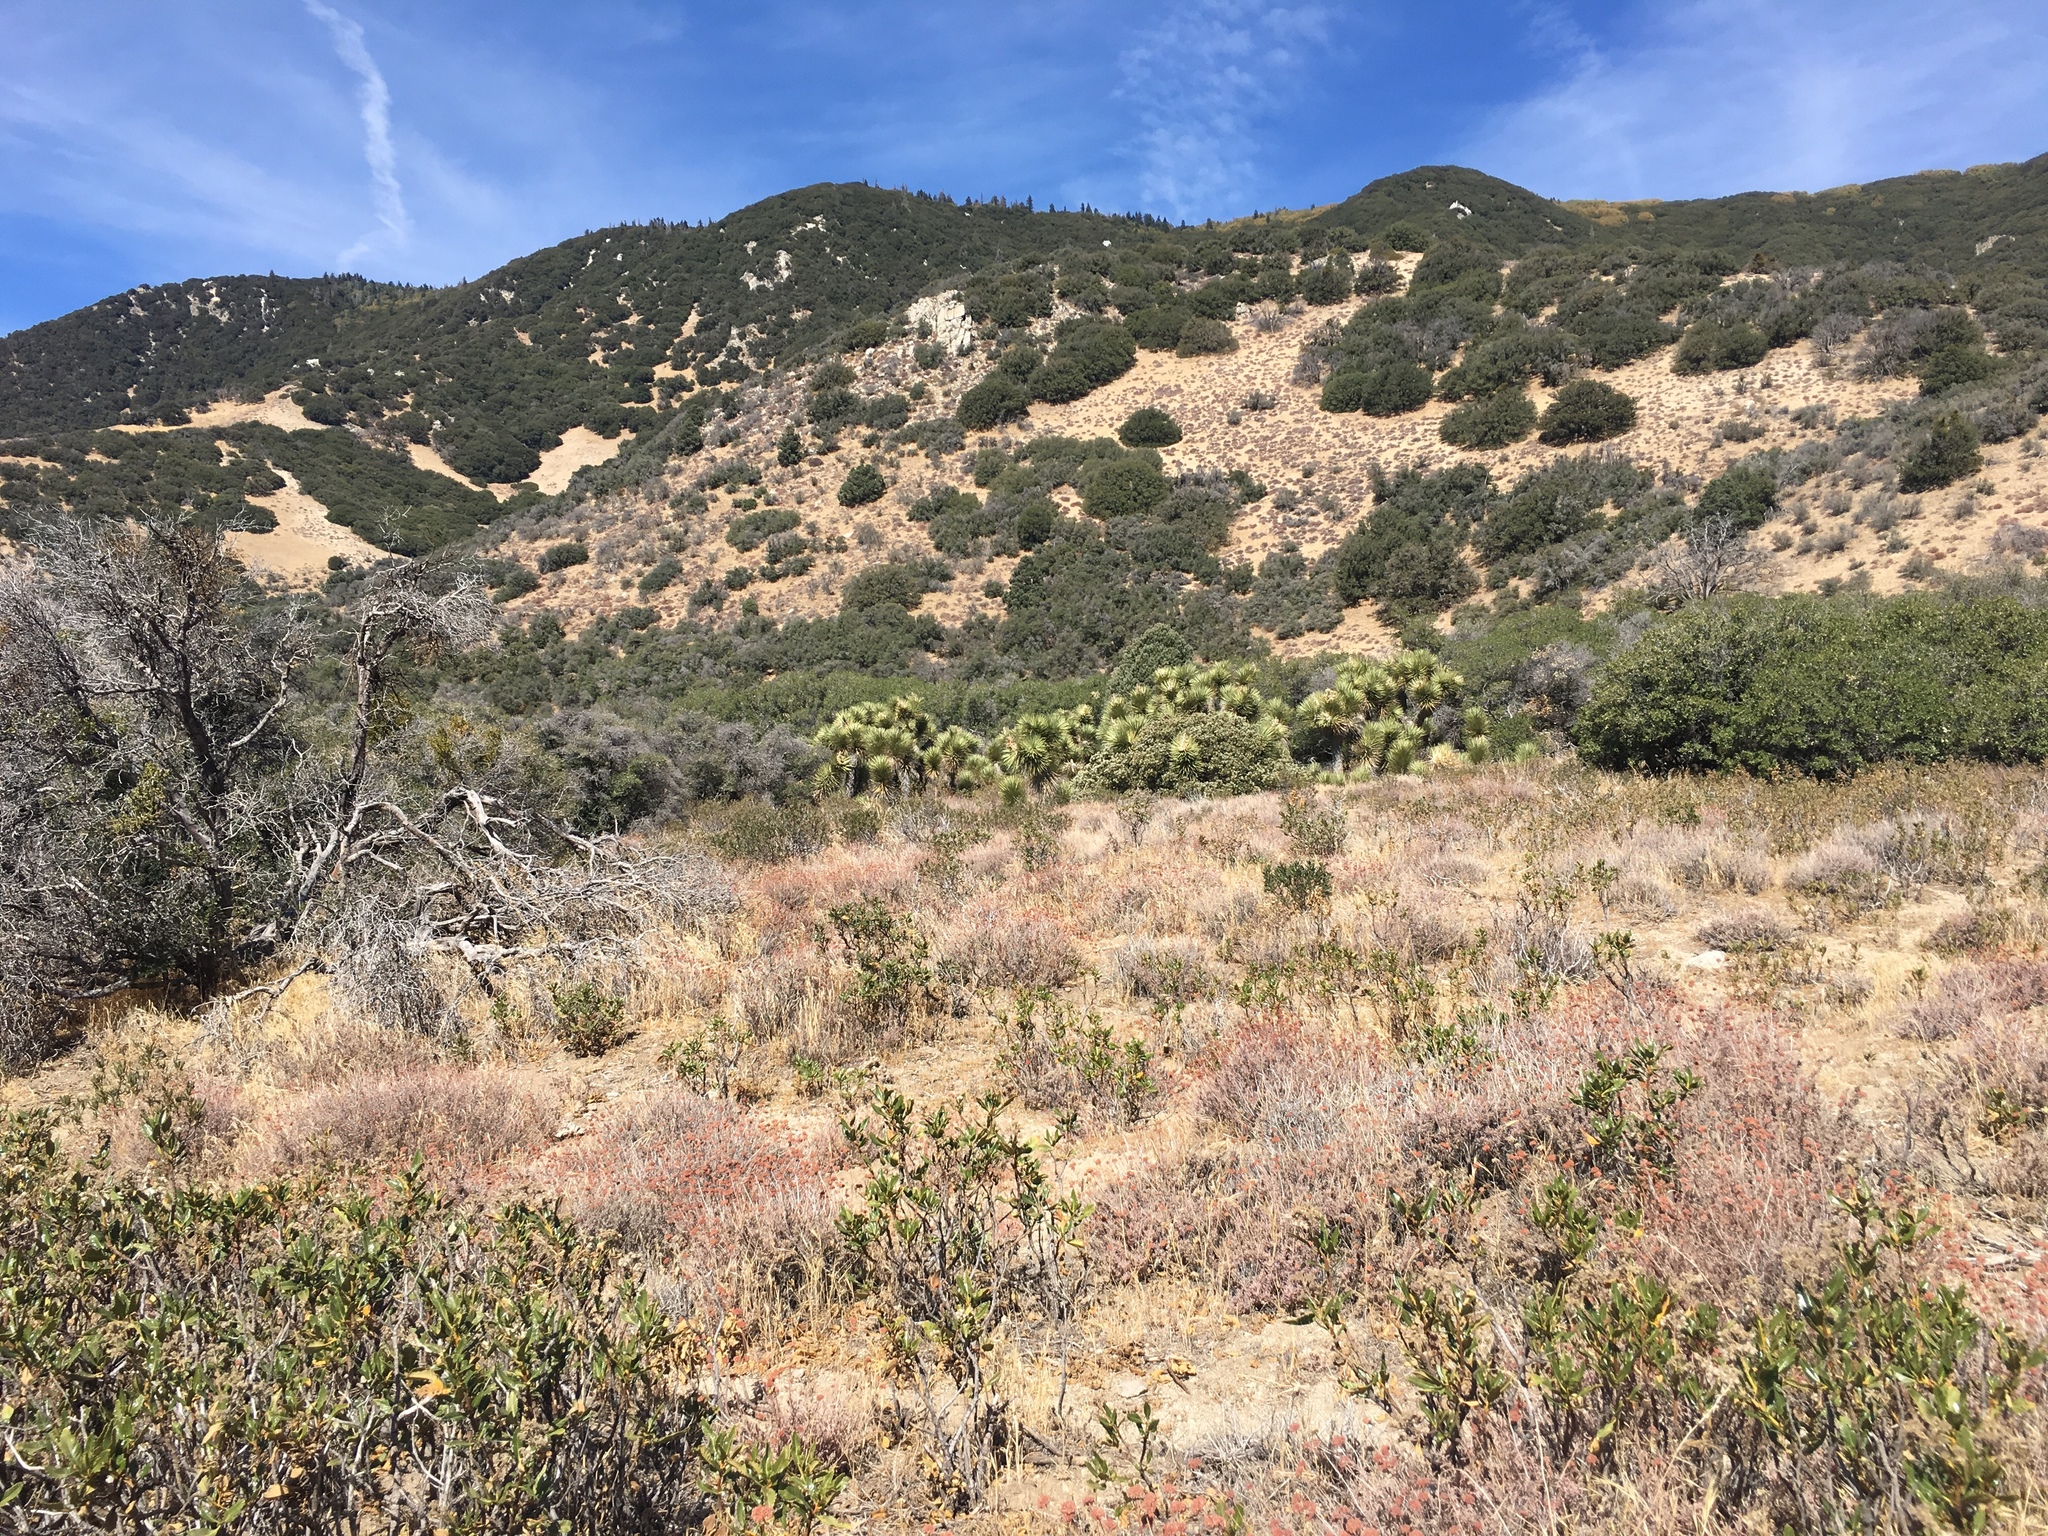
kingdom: Plantae
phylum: Tracheophyta
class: Liliopsida
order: Asparagales
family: Asparagaceae
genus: Yucca
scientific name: Yucca brevifolia
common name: Joshua tree
